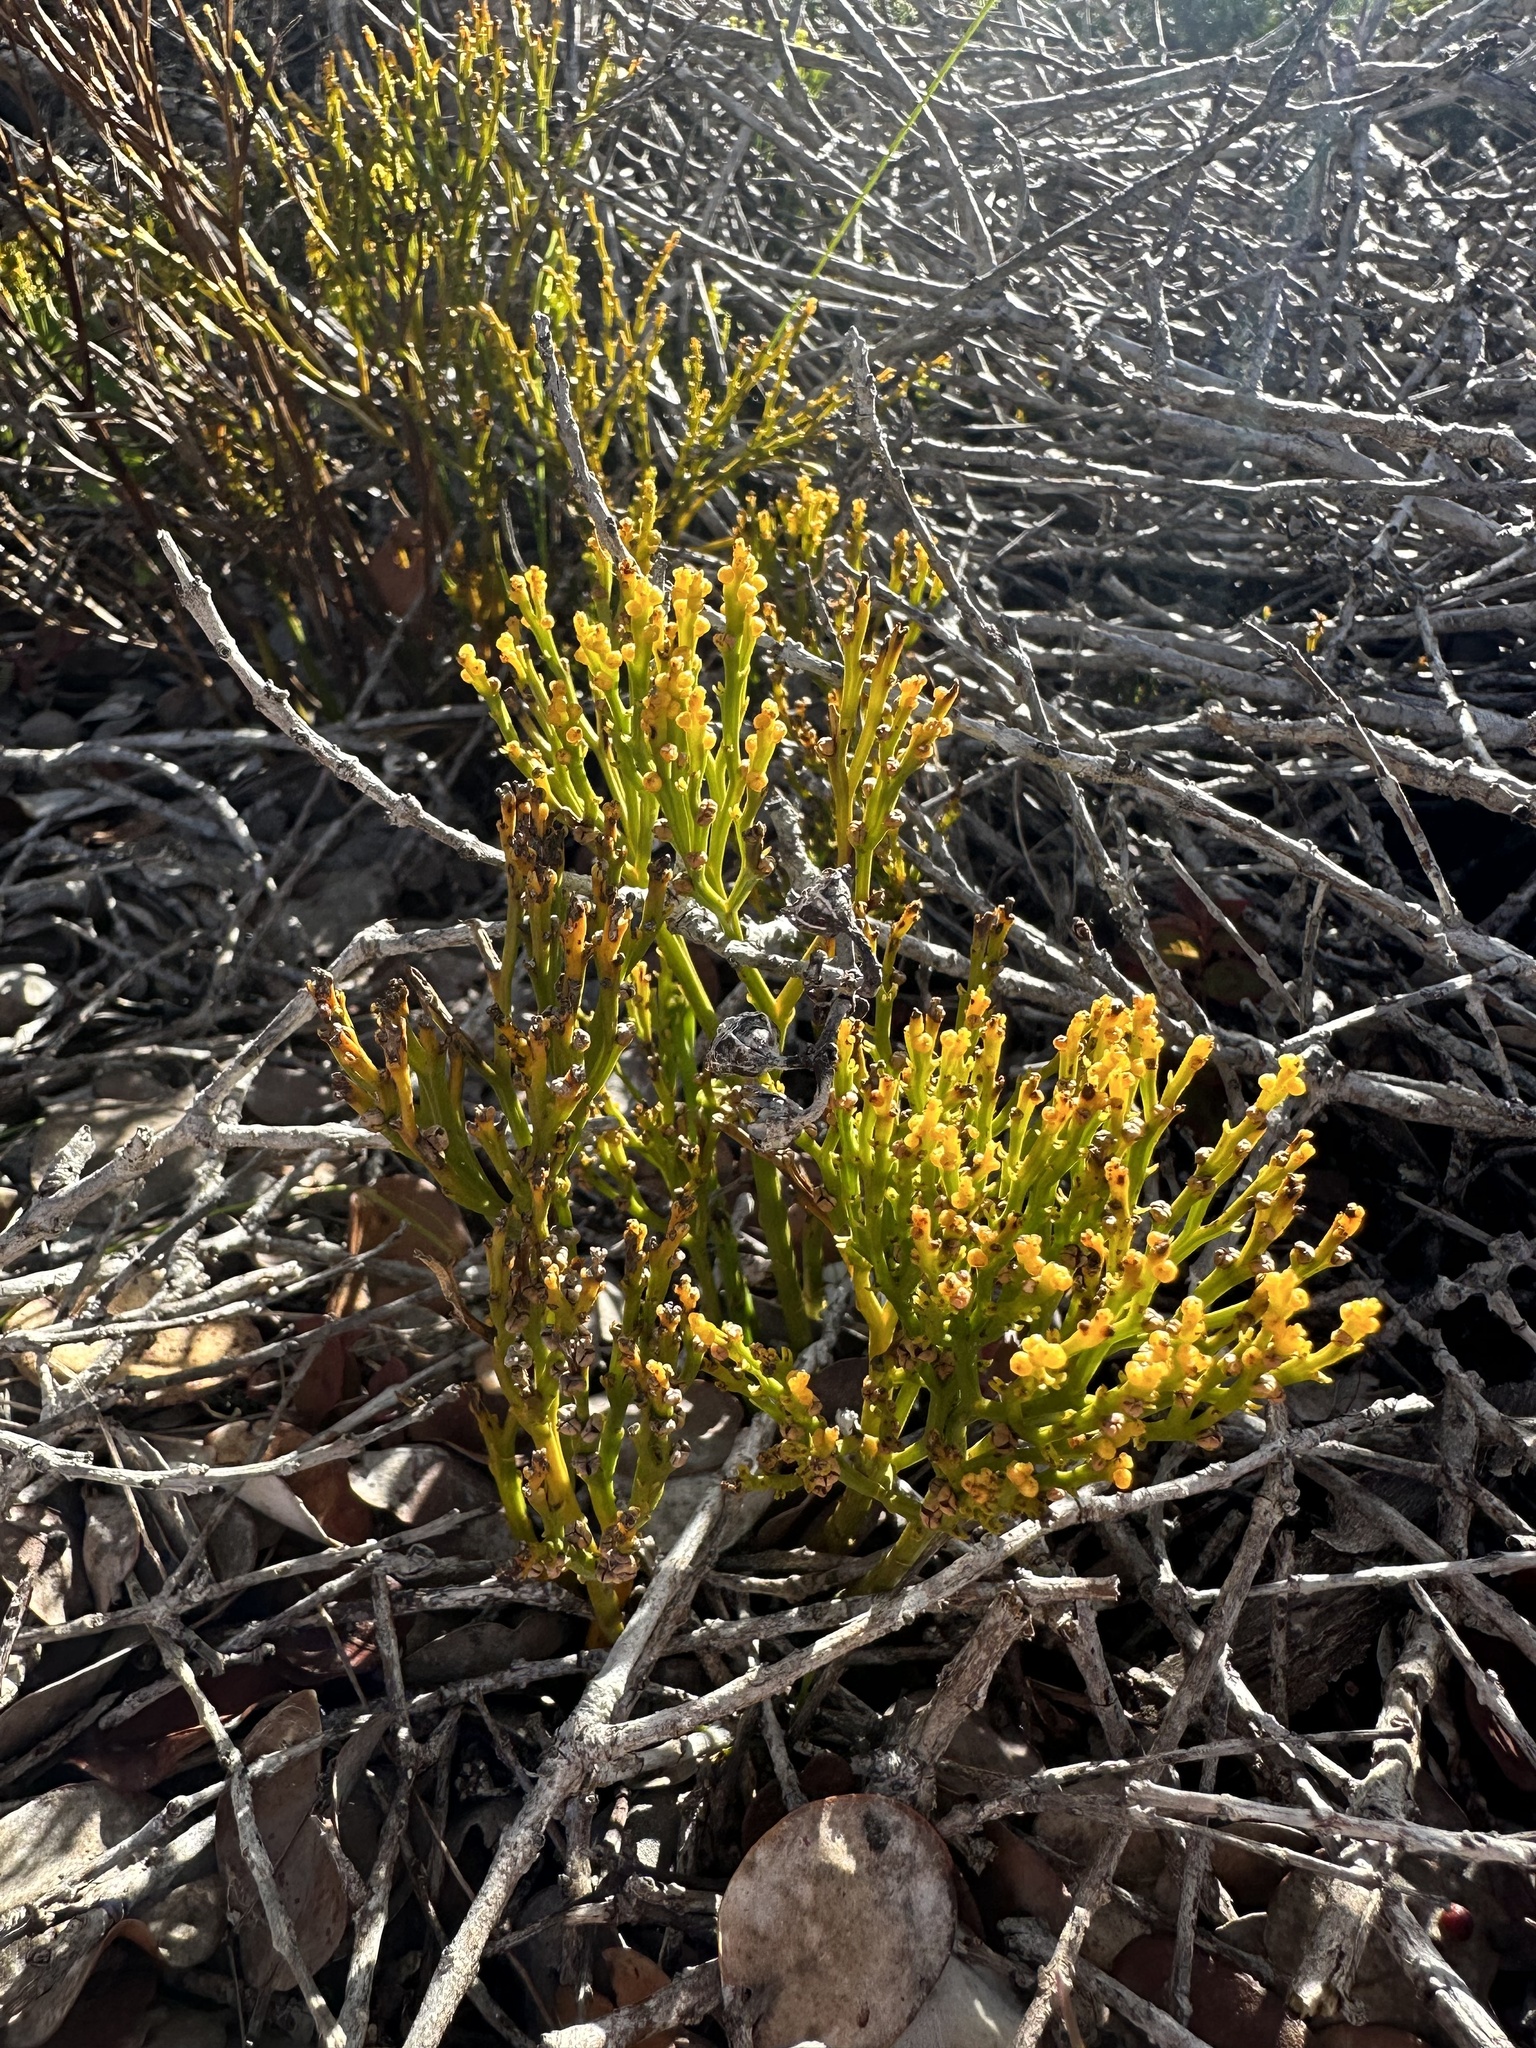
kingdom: Plantae
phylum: Tracheophyta
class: Polypodiopsida
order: Psilotales
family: Psilotaceae
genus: Psilotum
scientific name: Psilotum nudum
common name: Skeleton fork fern
